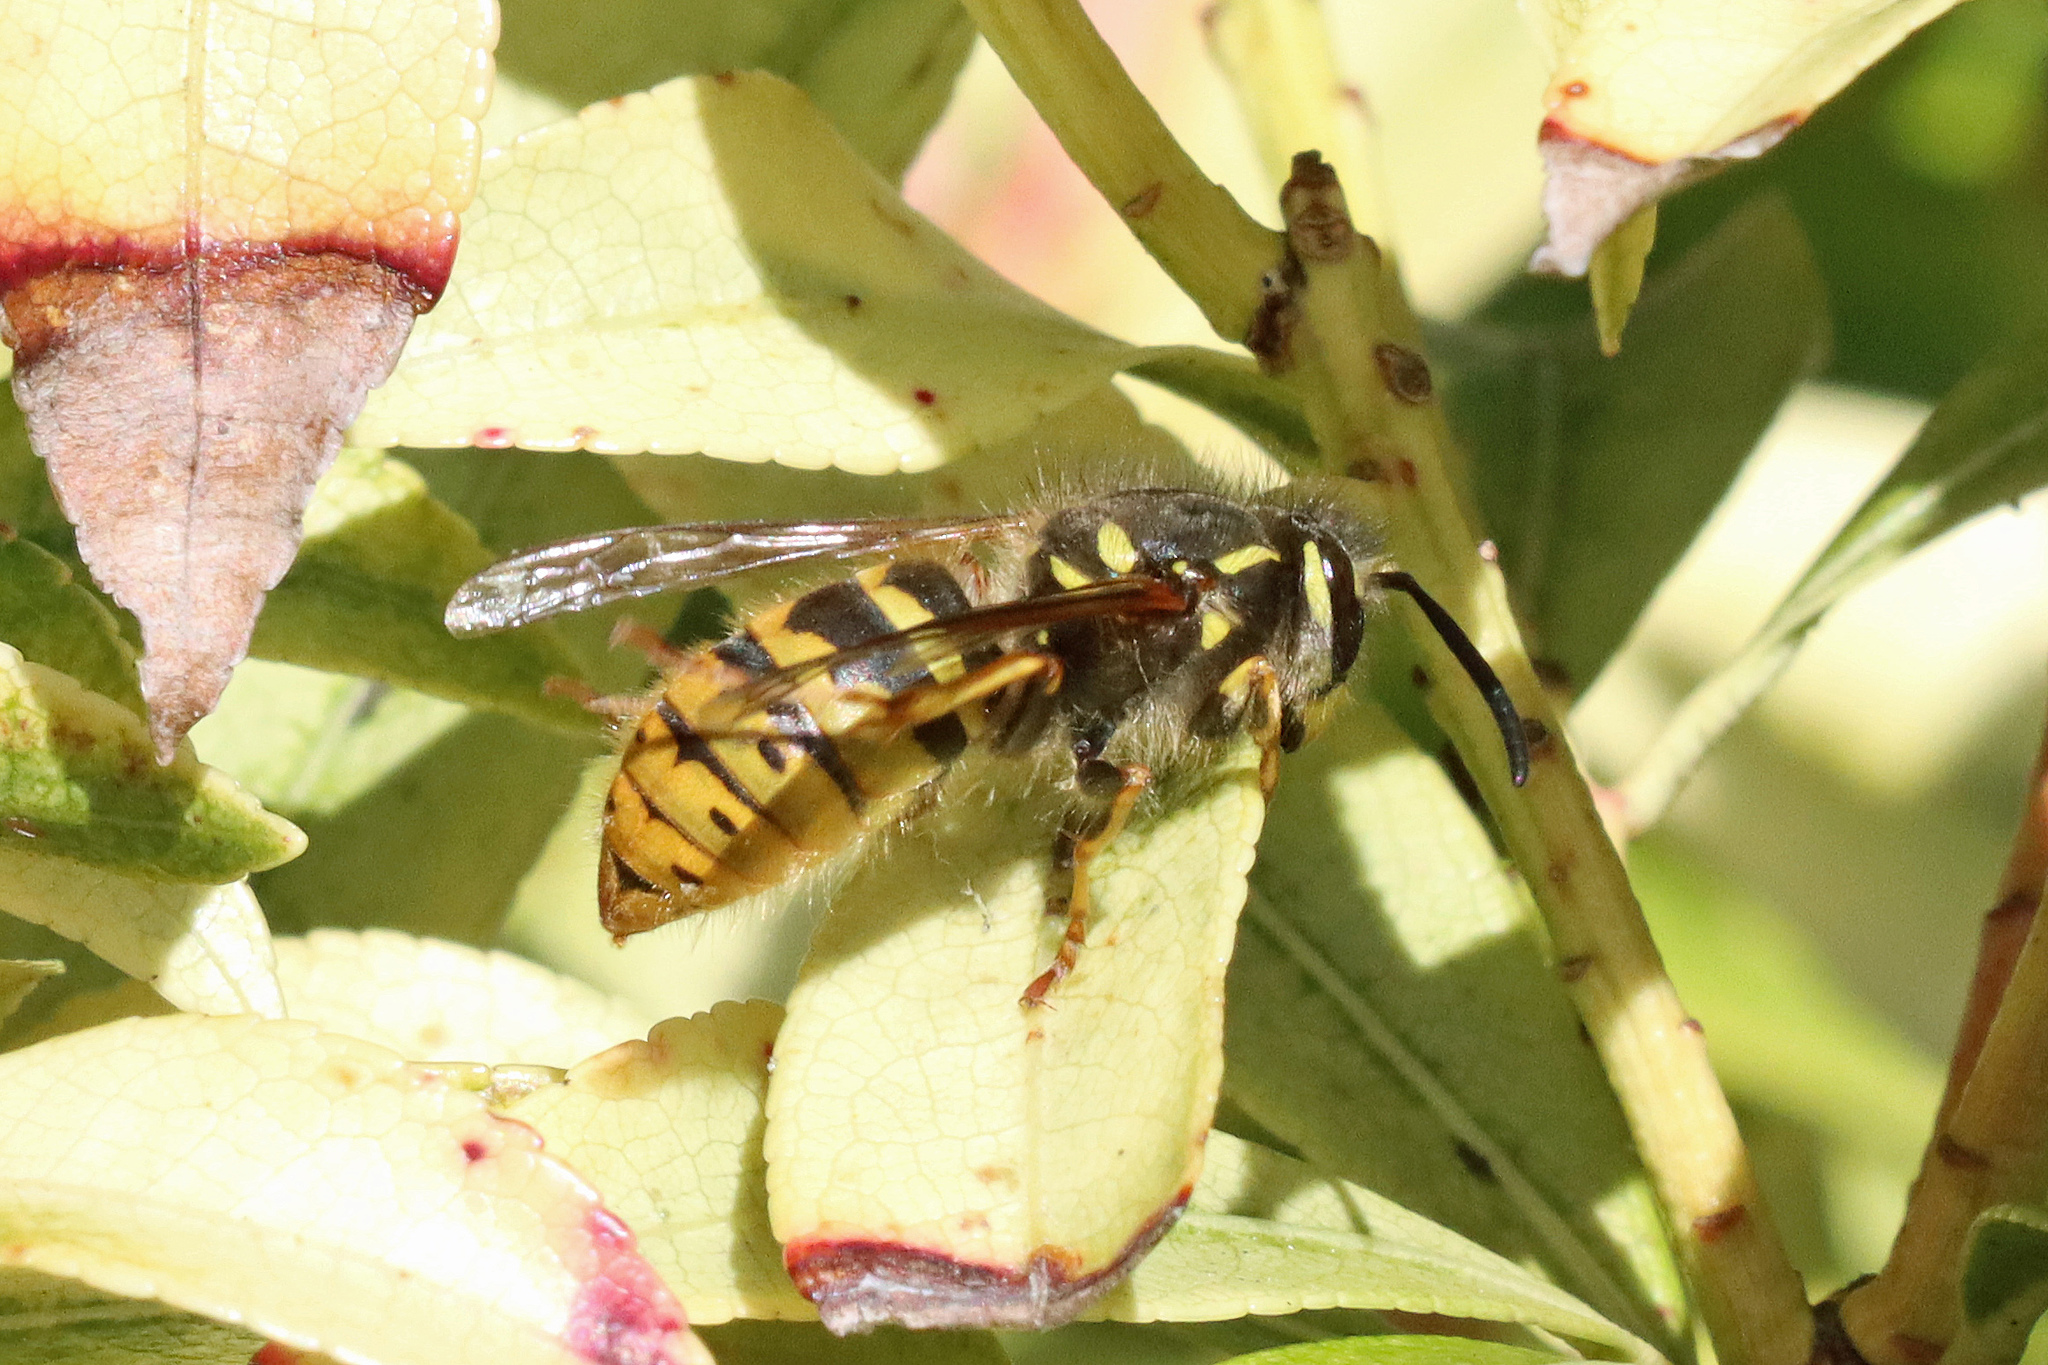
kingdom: Animalia
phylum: Arthropoda
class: Insecta
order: Hymenoptera
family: Vespidae
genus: Vespula
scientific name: Vespula vulgaris
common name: Common wasp
